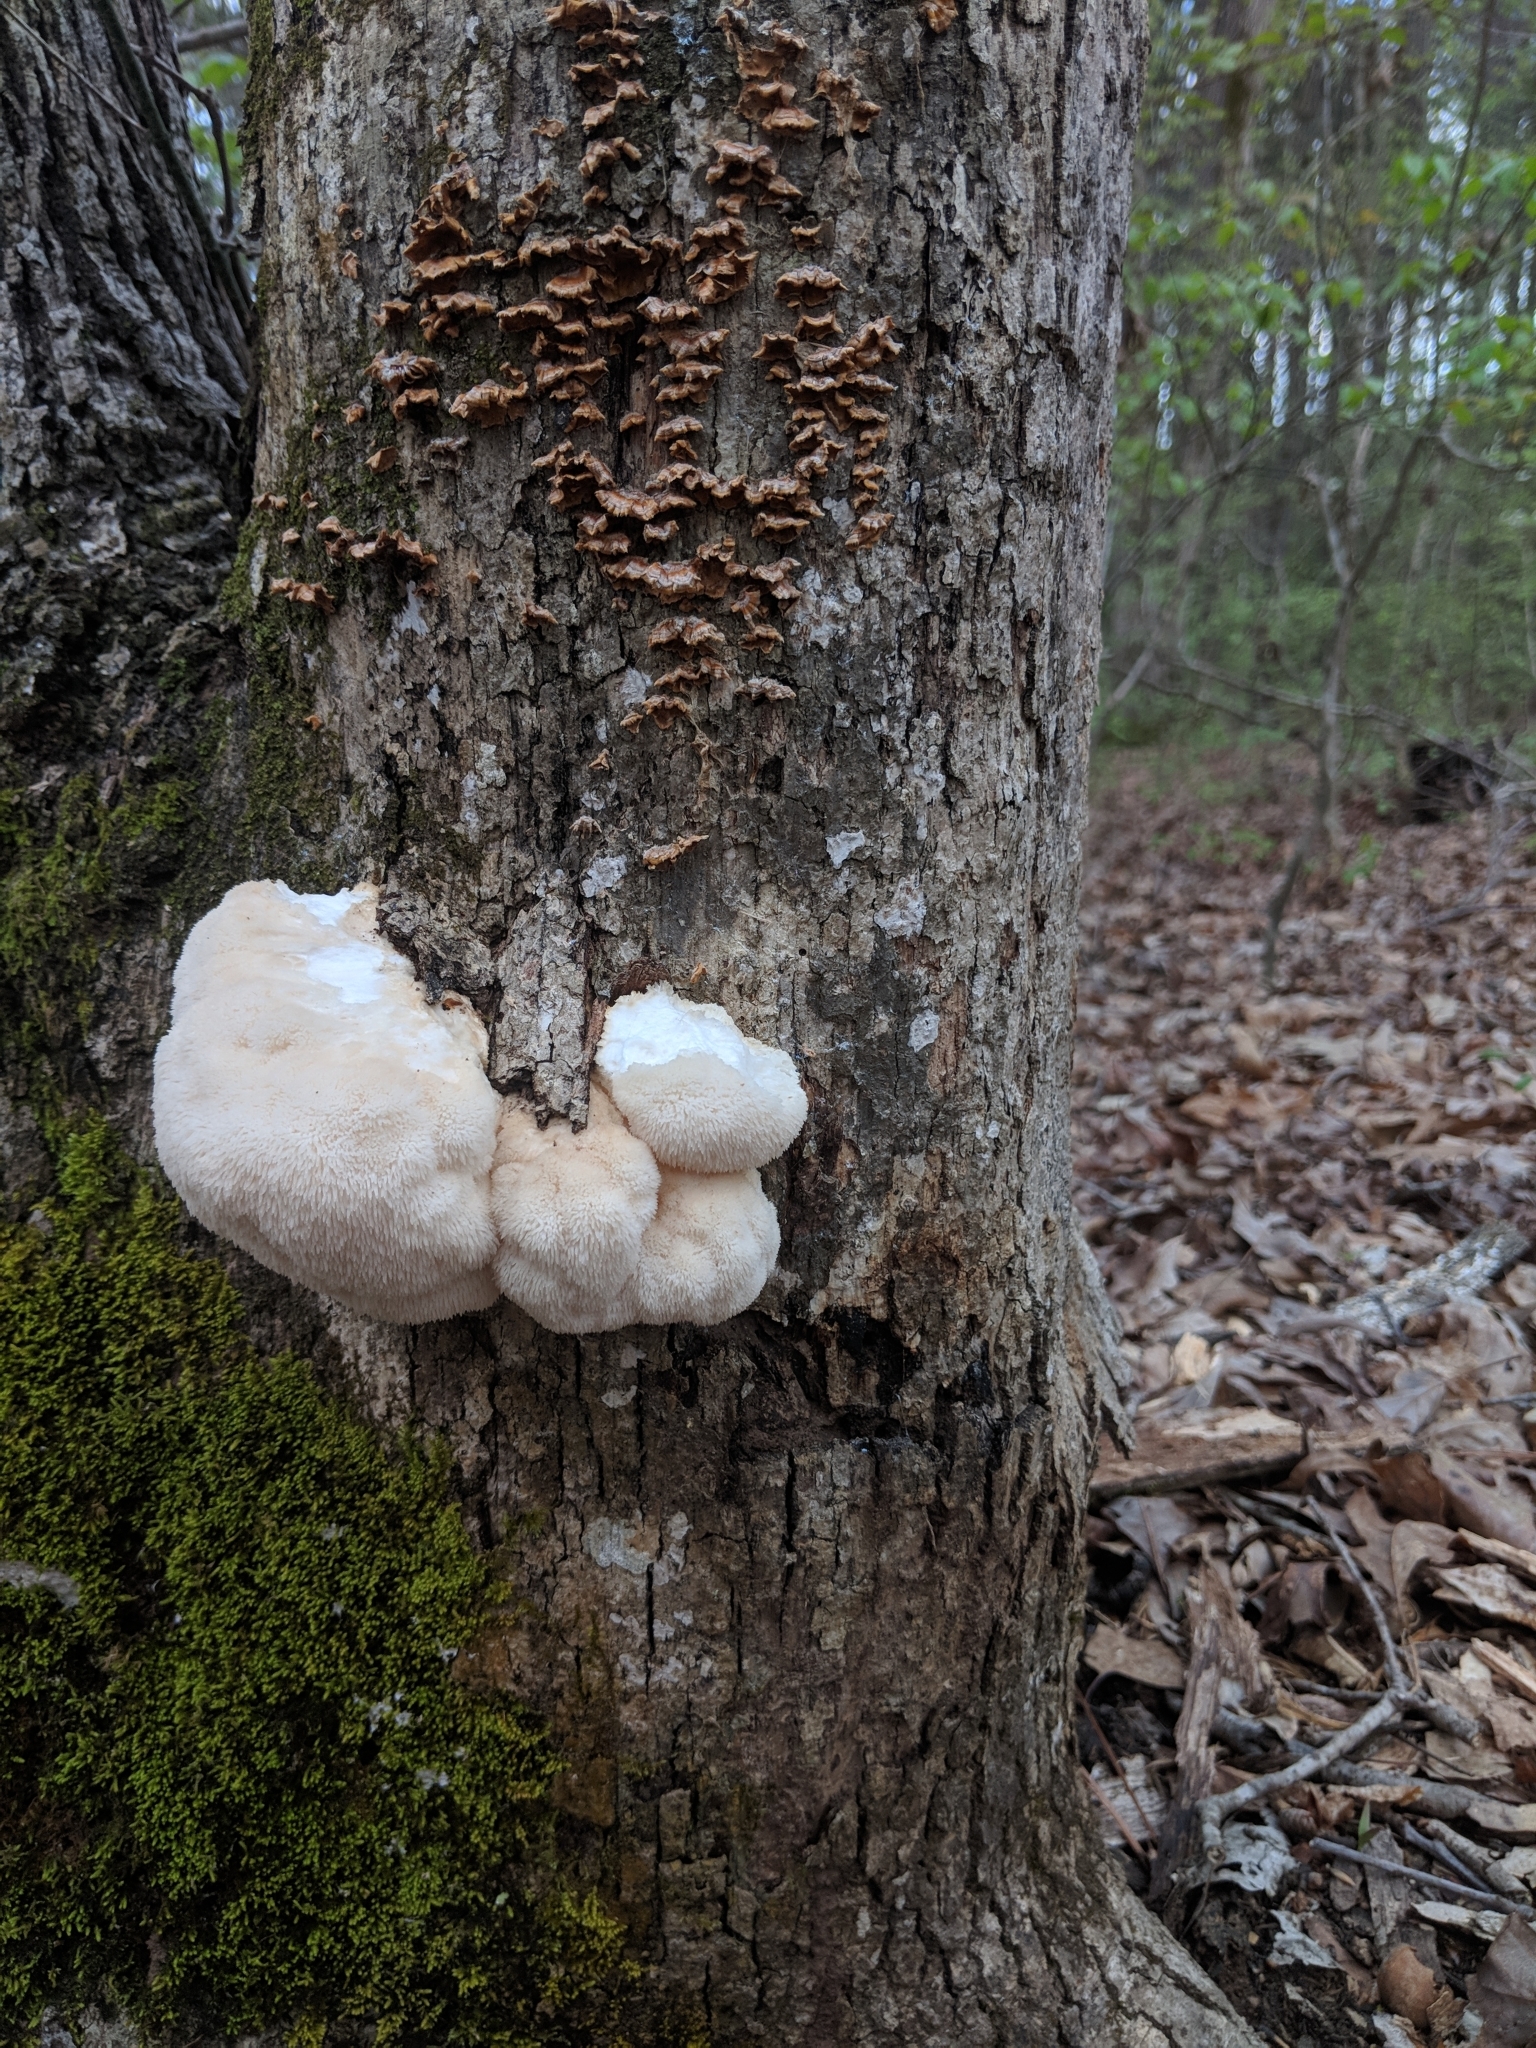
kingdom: Fungi
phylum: Basidiomycota
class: Agaricomycetes
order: Russulales
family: Hericiaceae
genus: Hericium
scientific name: Hericium erinaceus
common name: Bearded tooth
